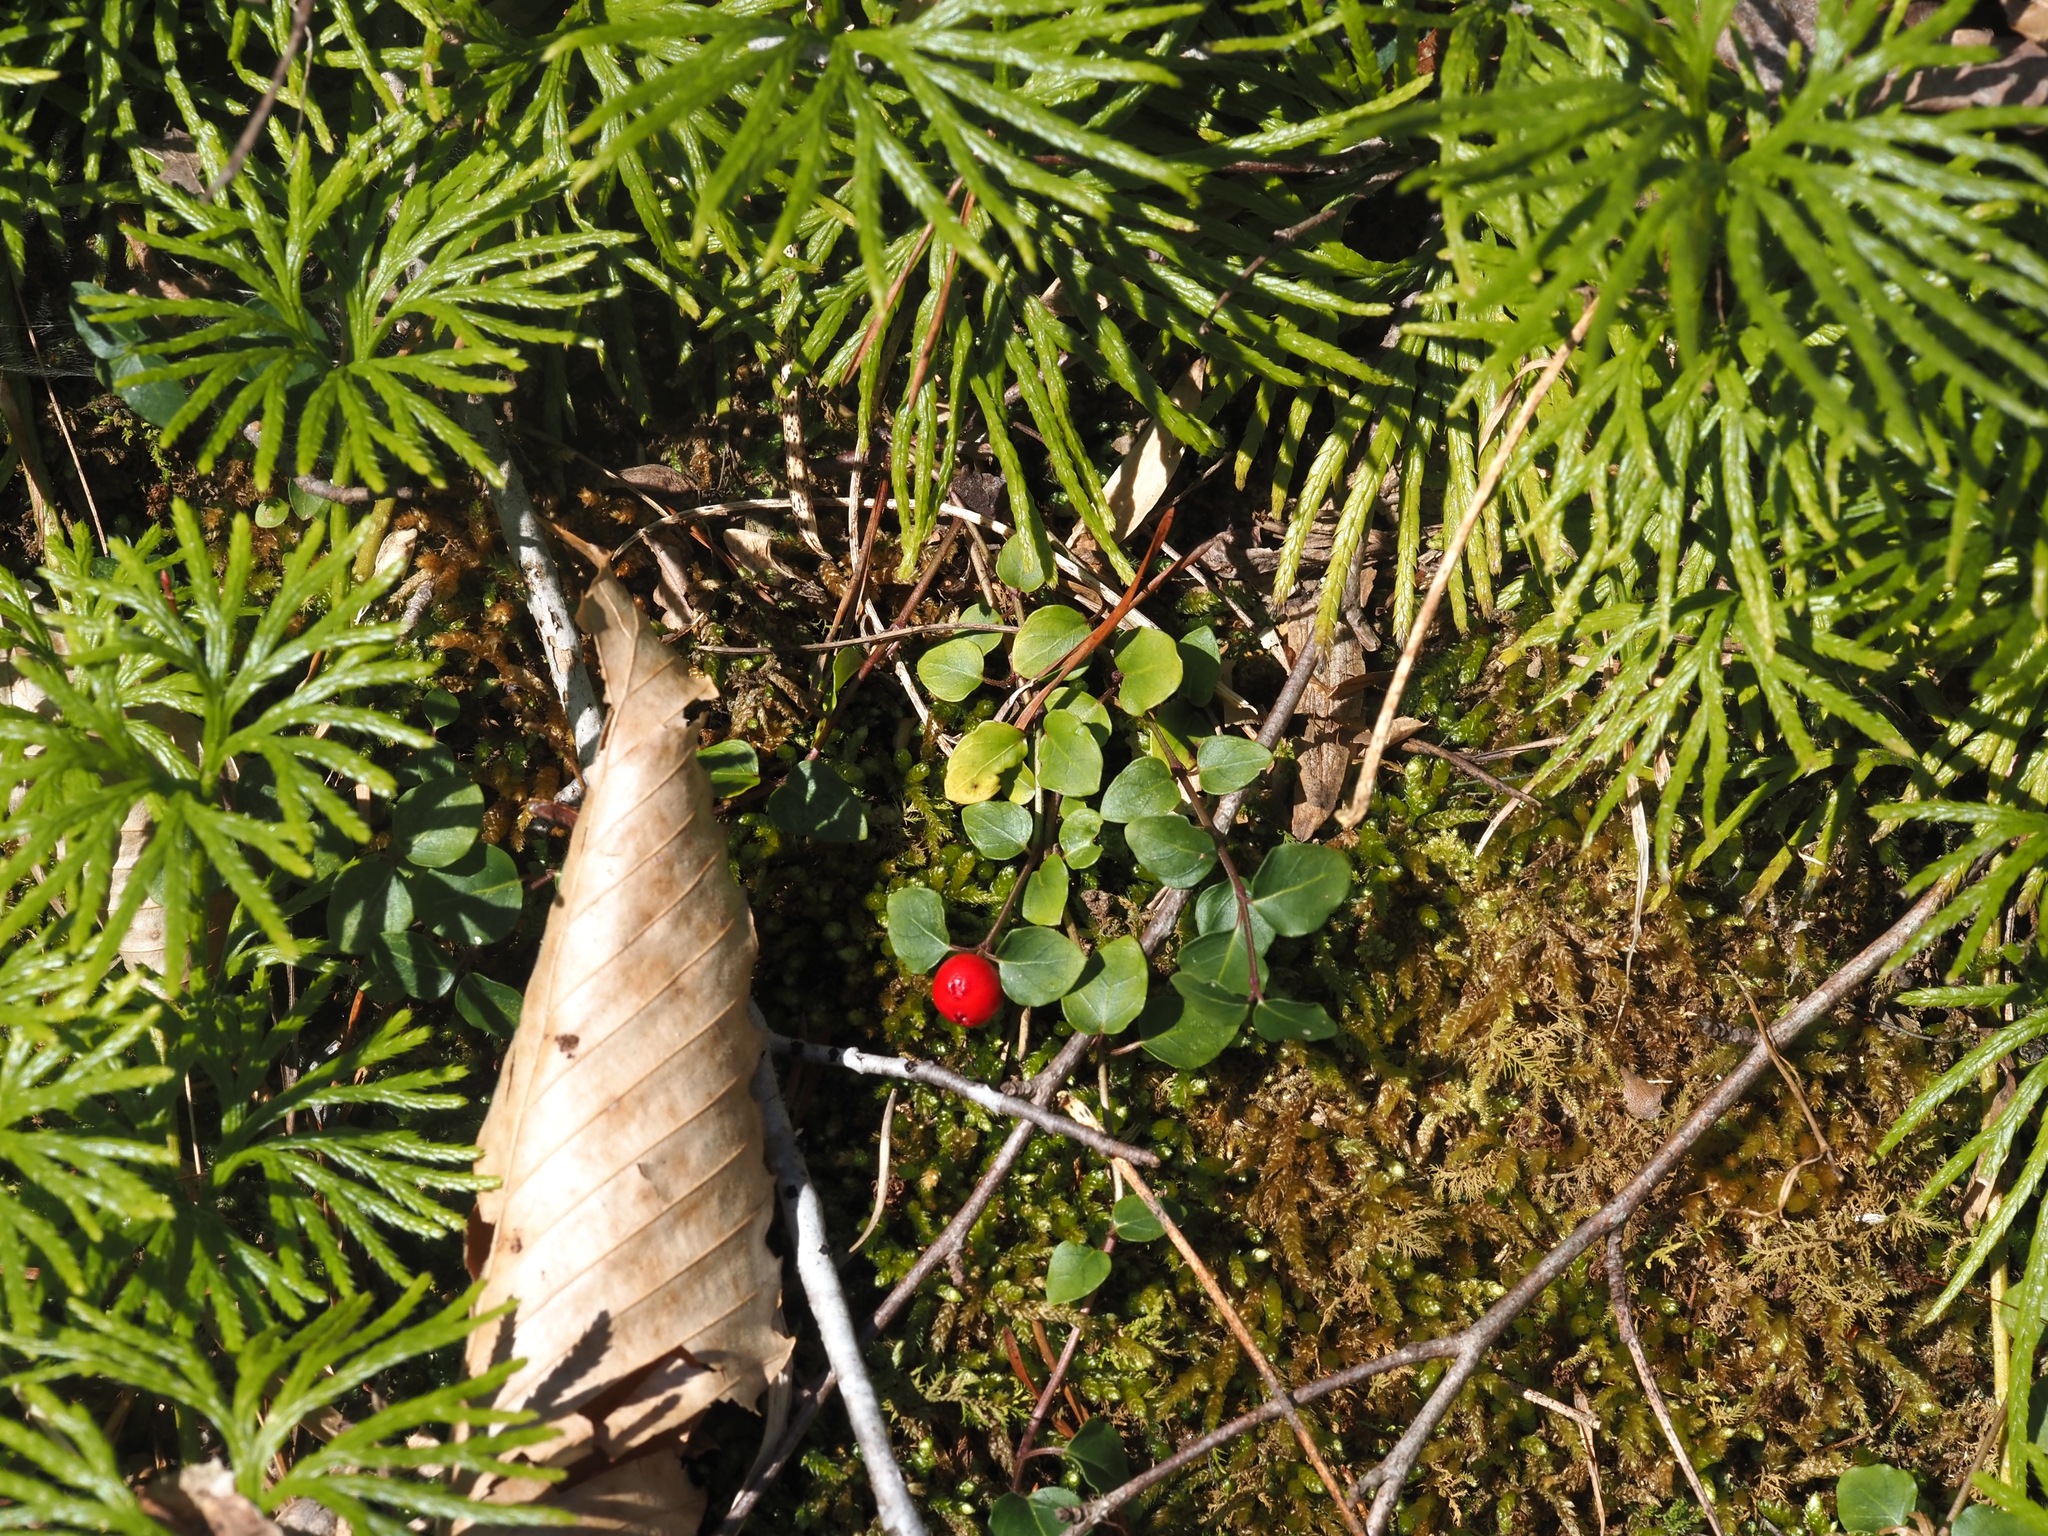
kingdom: Plantae
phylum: Tracheophyta
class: Magnoliopsida
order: Gentianales
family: Rubiaceae
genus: Mitchella
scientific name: Mitchella repens
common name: Partridge-berry
